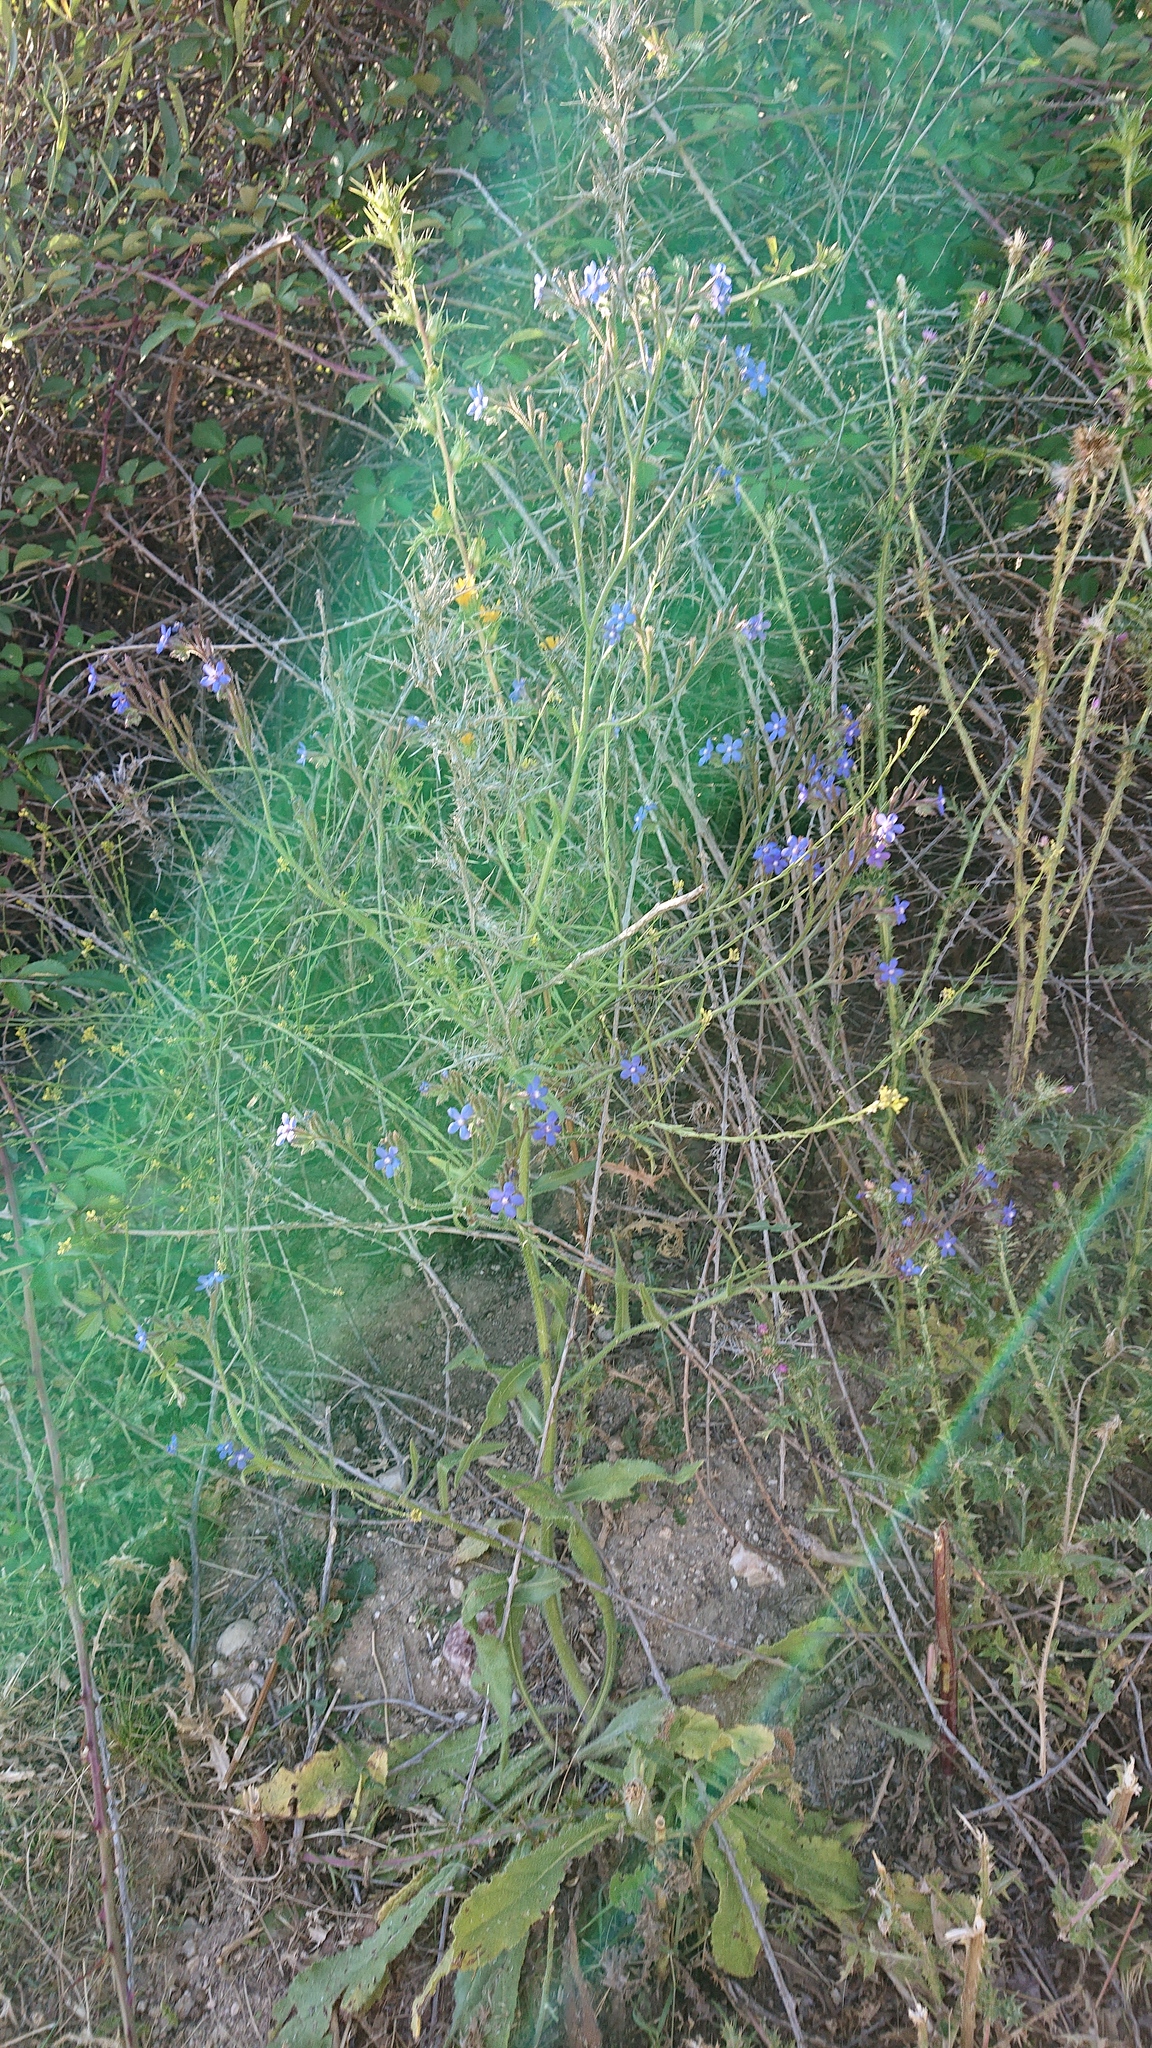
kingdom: Plantae
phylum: Tracheophyta
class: Magnoliopsida
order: Boraginales
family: Boraginaceae
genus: Anchusa
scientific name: Anchusa azurea
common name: Garden anchusa
